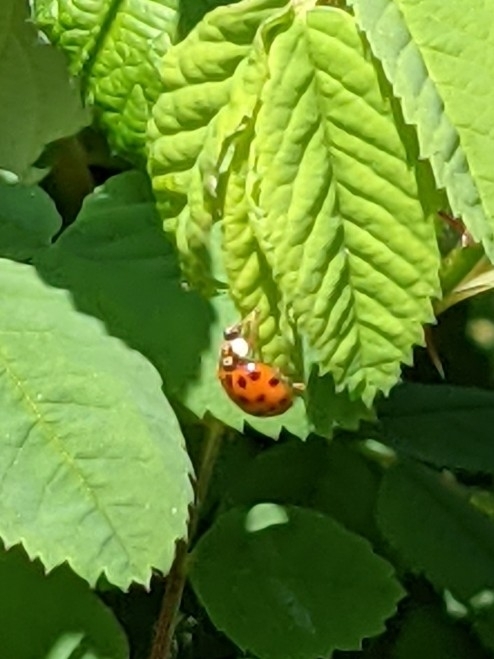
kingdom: Animalia
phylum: Arthropoda
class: Insecta
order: Coleoptera
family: Coccinellidae
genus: Harmonia
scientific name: Harmonia axyridis
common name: Harlequin ladybird
